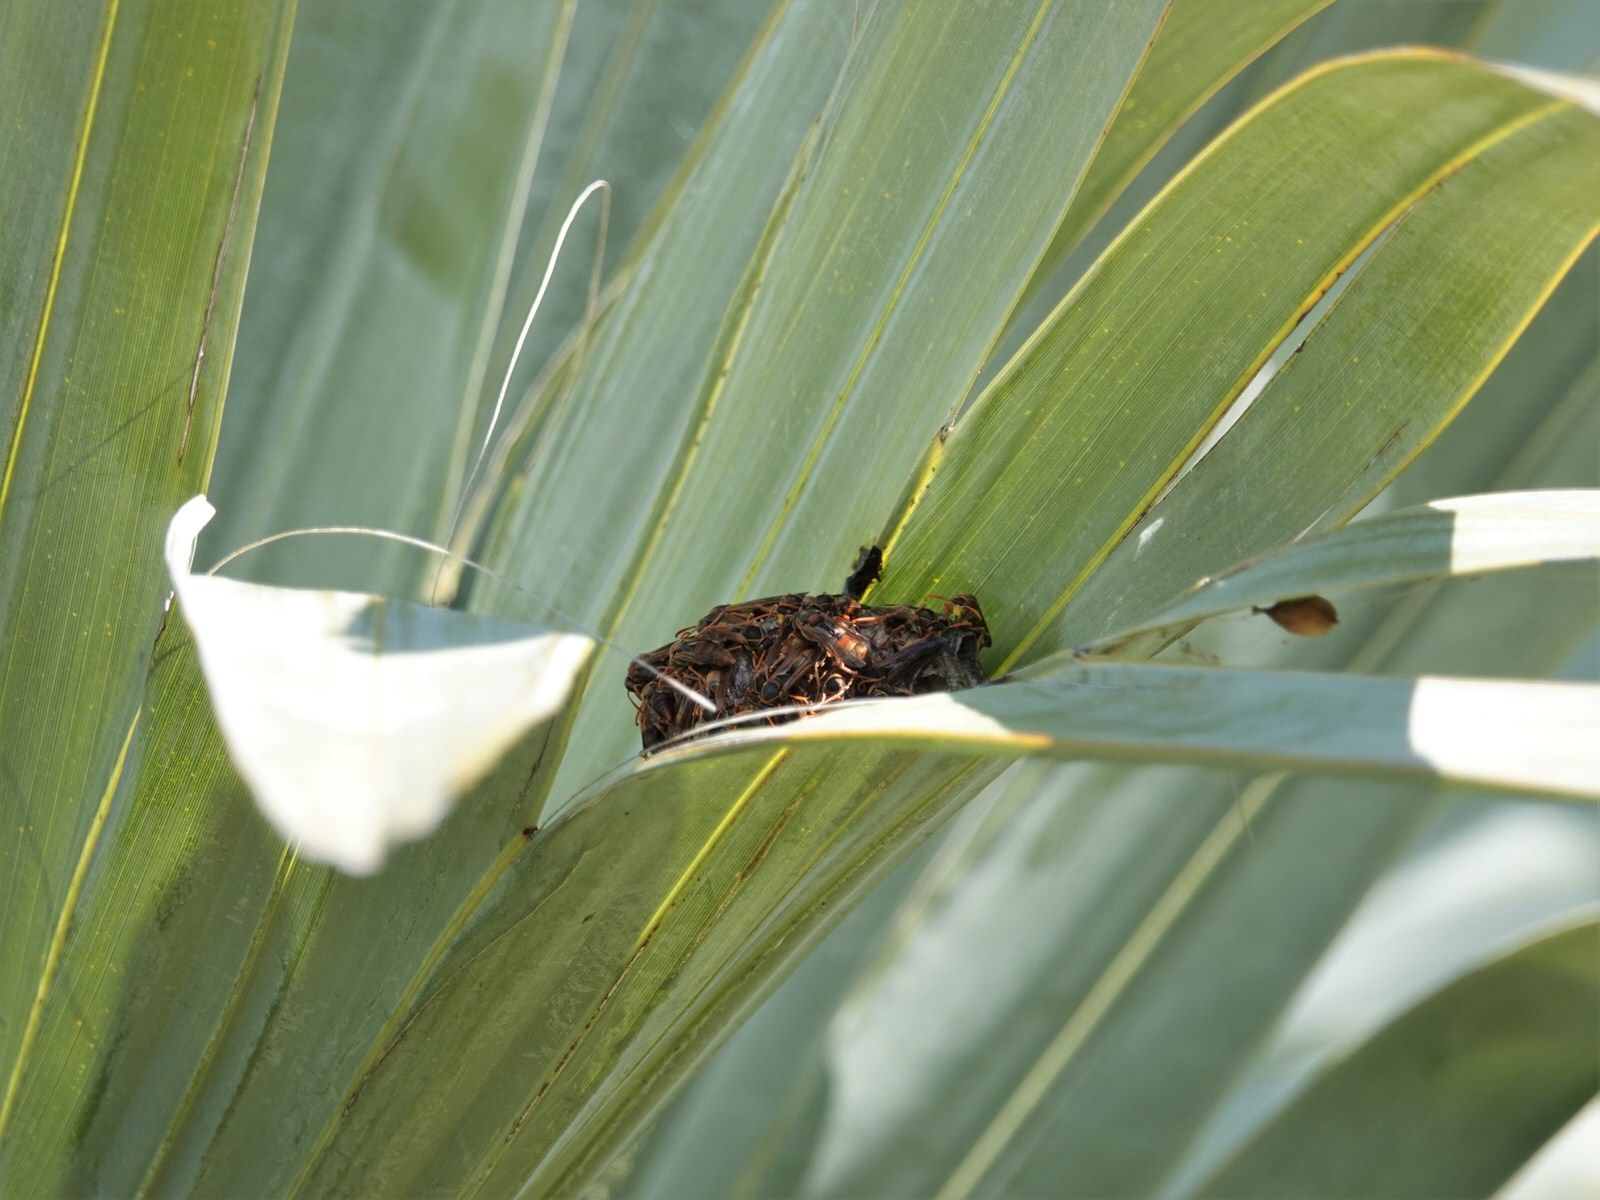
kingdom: Animalia
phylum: Arthropoda
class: Insecta
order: Hymenoptera
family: Eumenidae
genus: Polistes
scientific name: Polistes humilis
